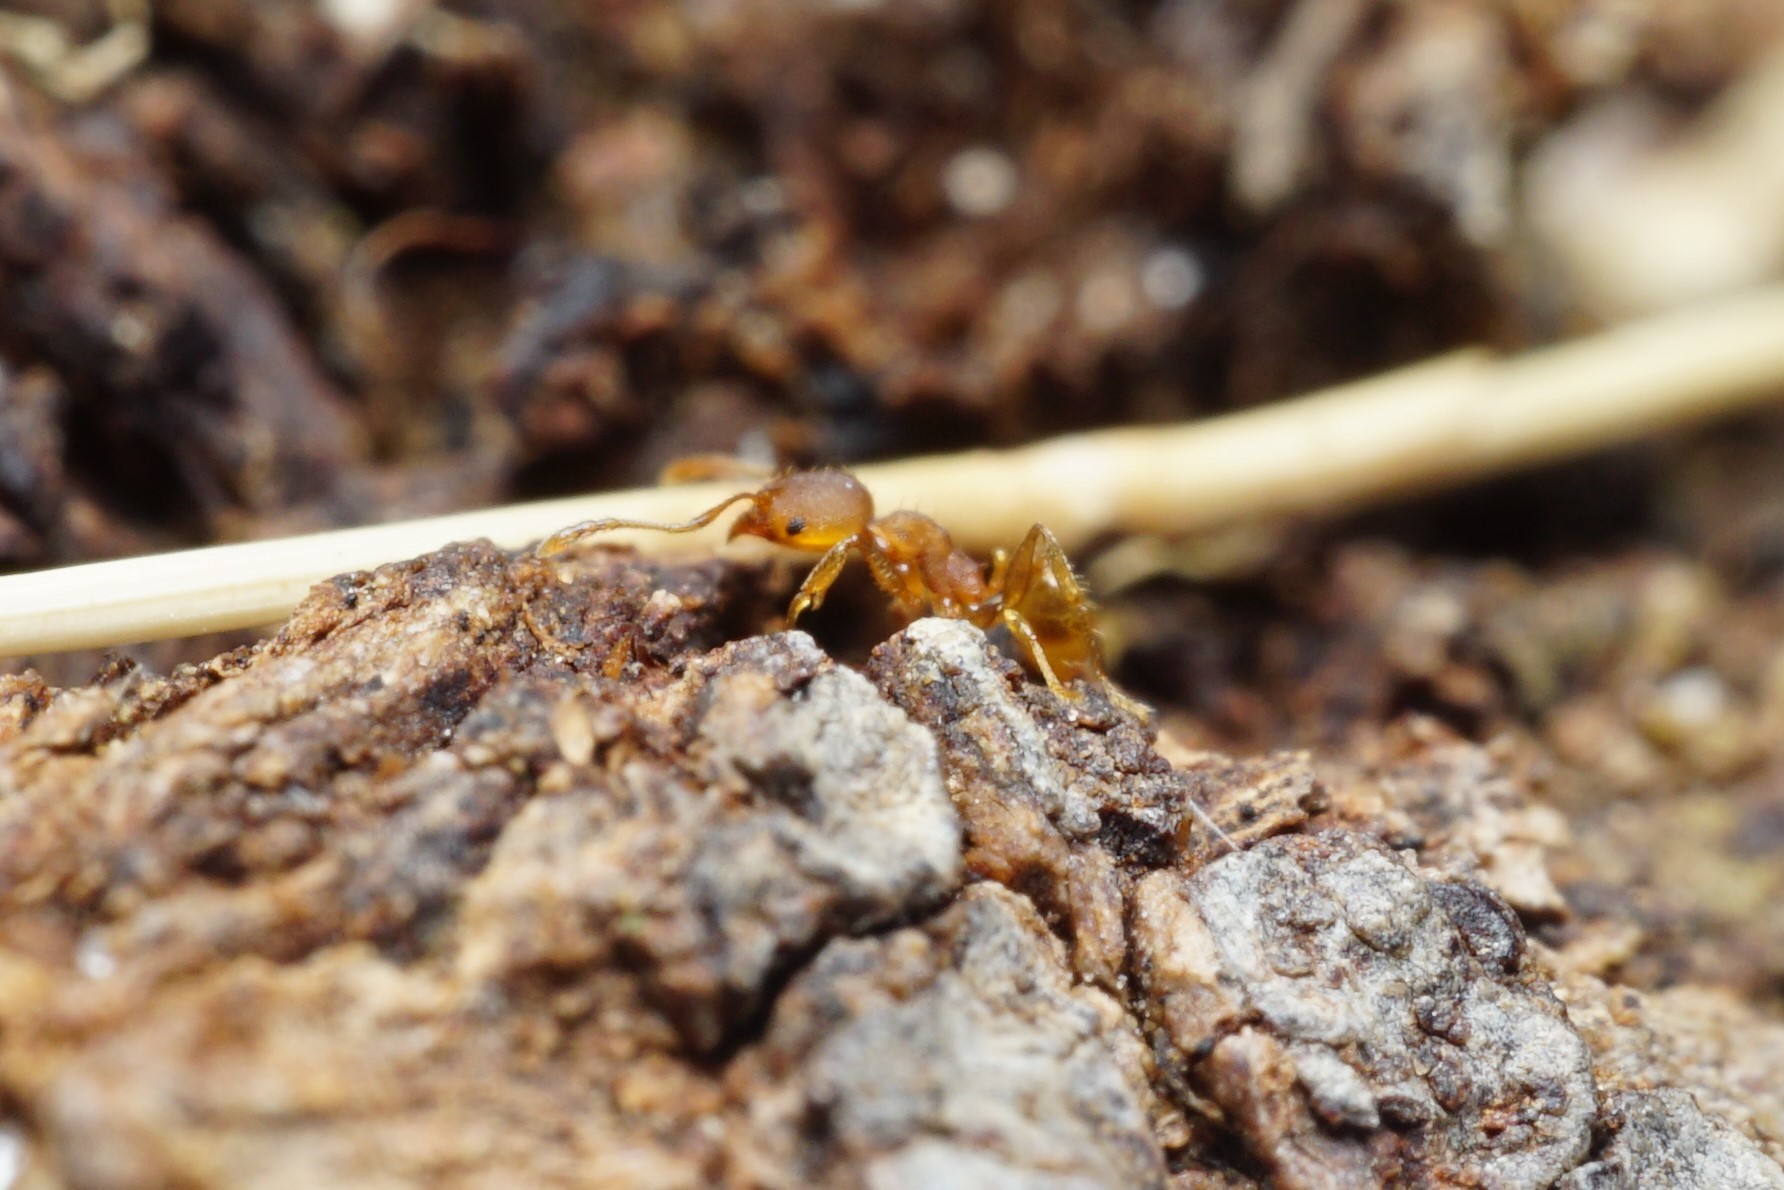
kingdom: Animalia
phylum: Arthropoda
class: Insecta
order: Hymenoptera
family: Formicidae
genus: Pheidole
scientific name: Pheidole bilimeki
